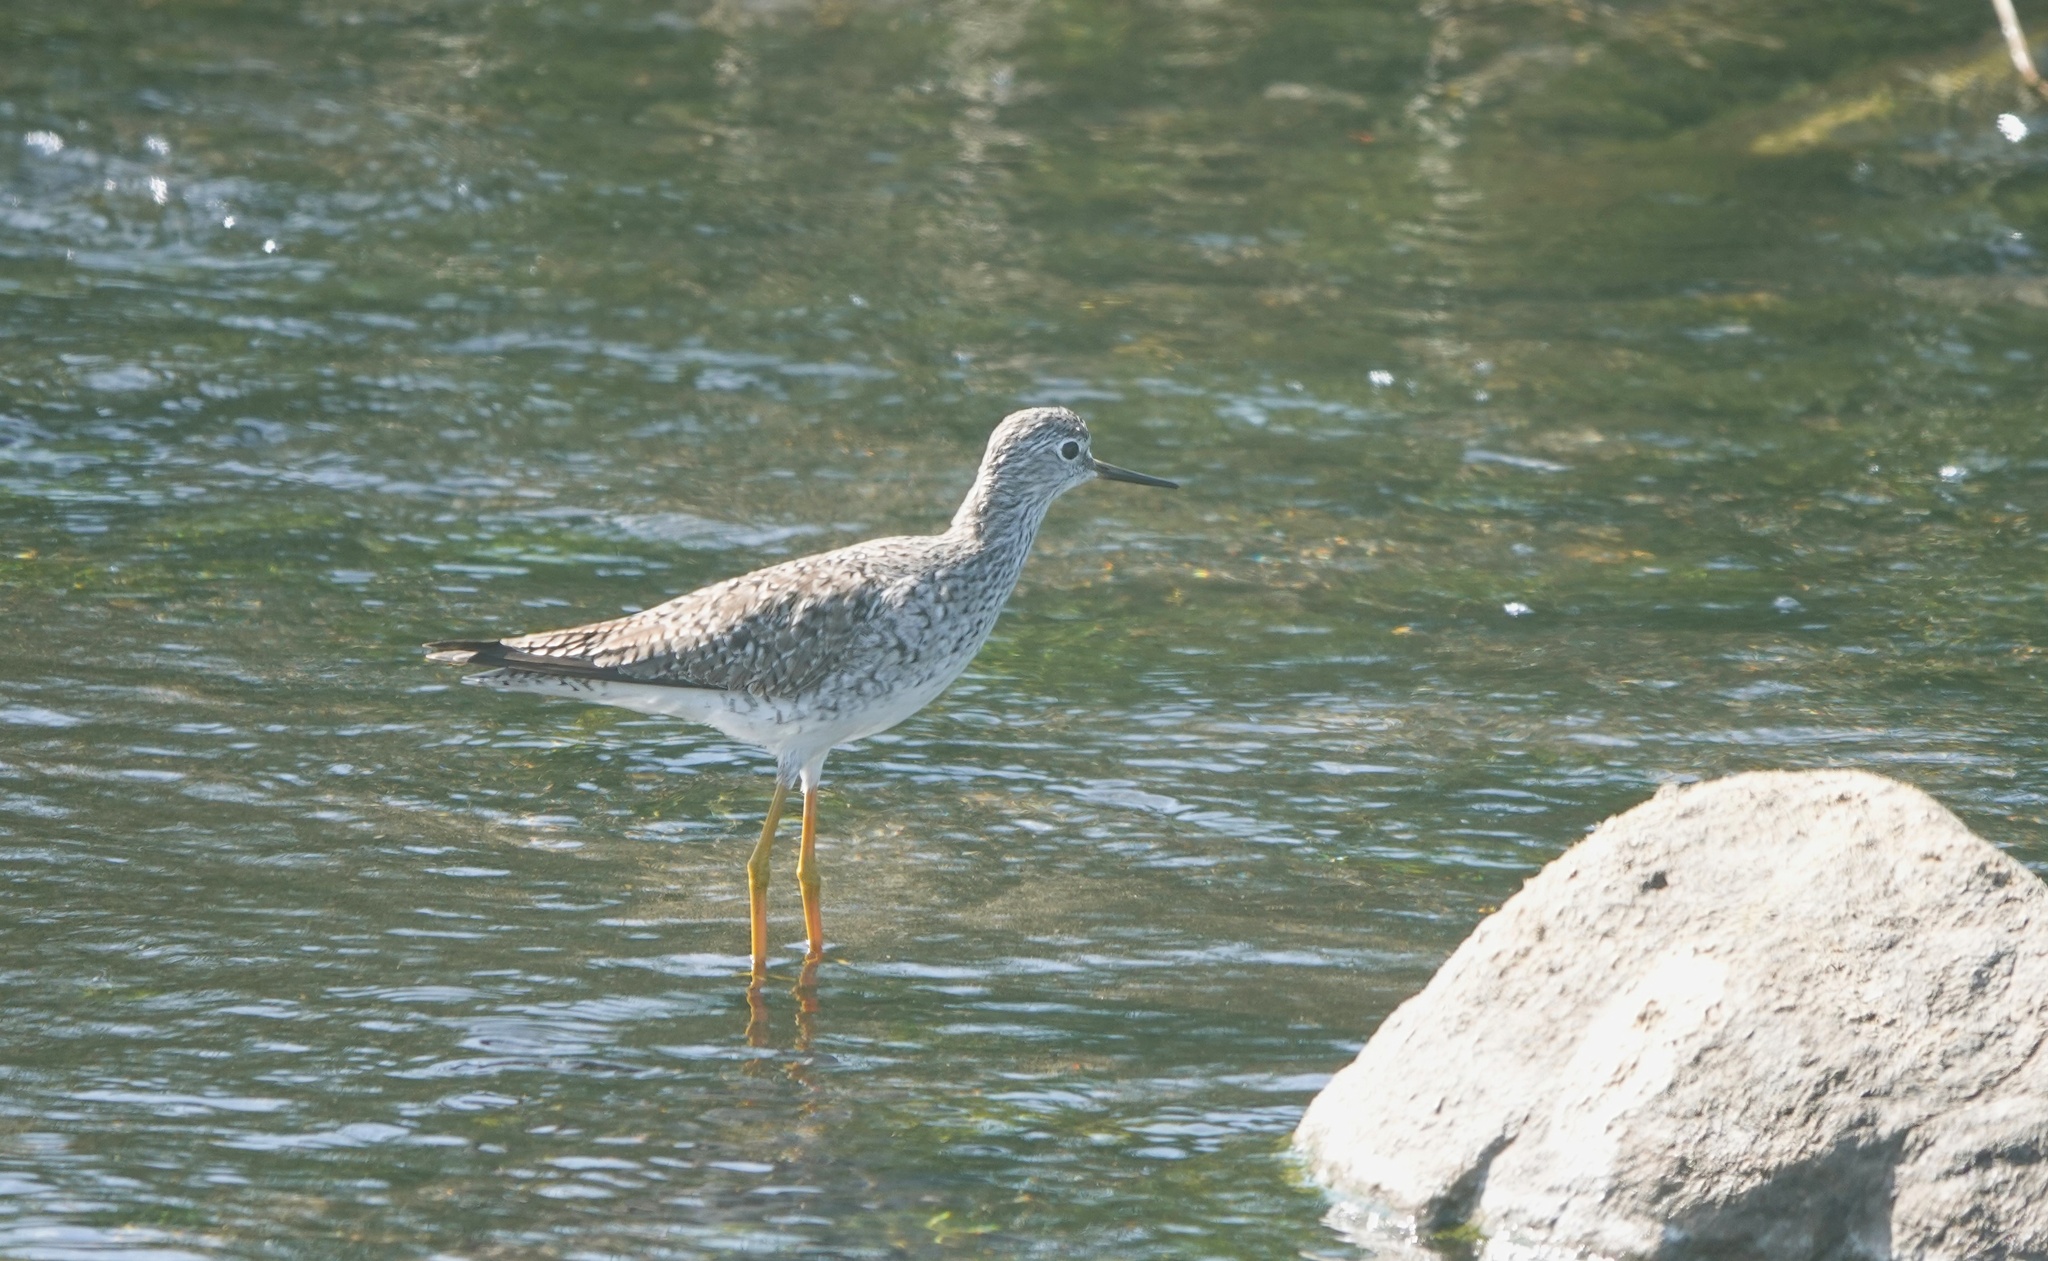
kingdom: Animalia
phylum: Chordata
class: Aves
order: Charadriiformes
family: Scolopacidae
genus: Tringa
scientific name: Tringa flavipes
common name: Lesser yellowlegs
